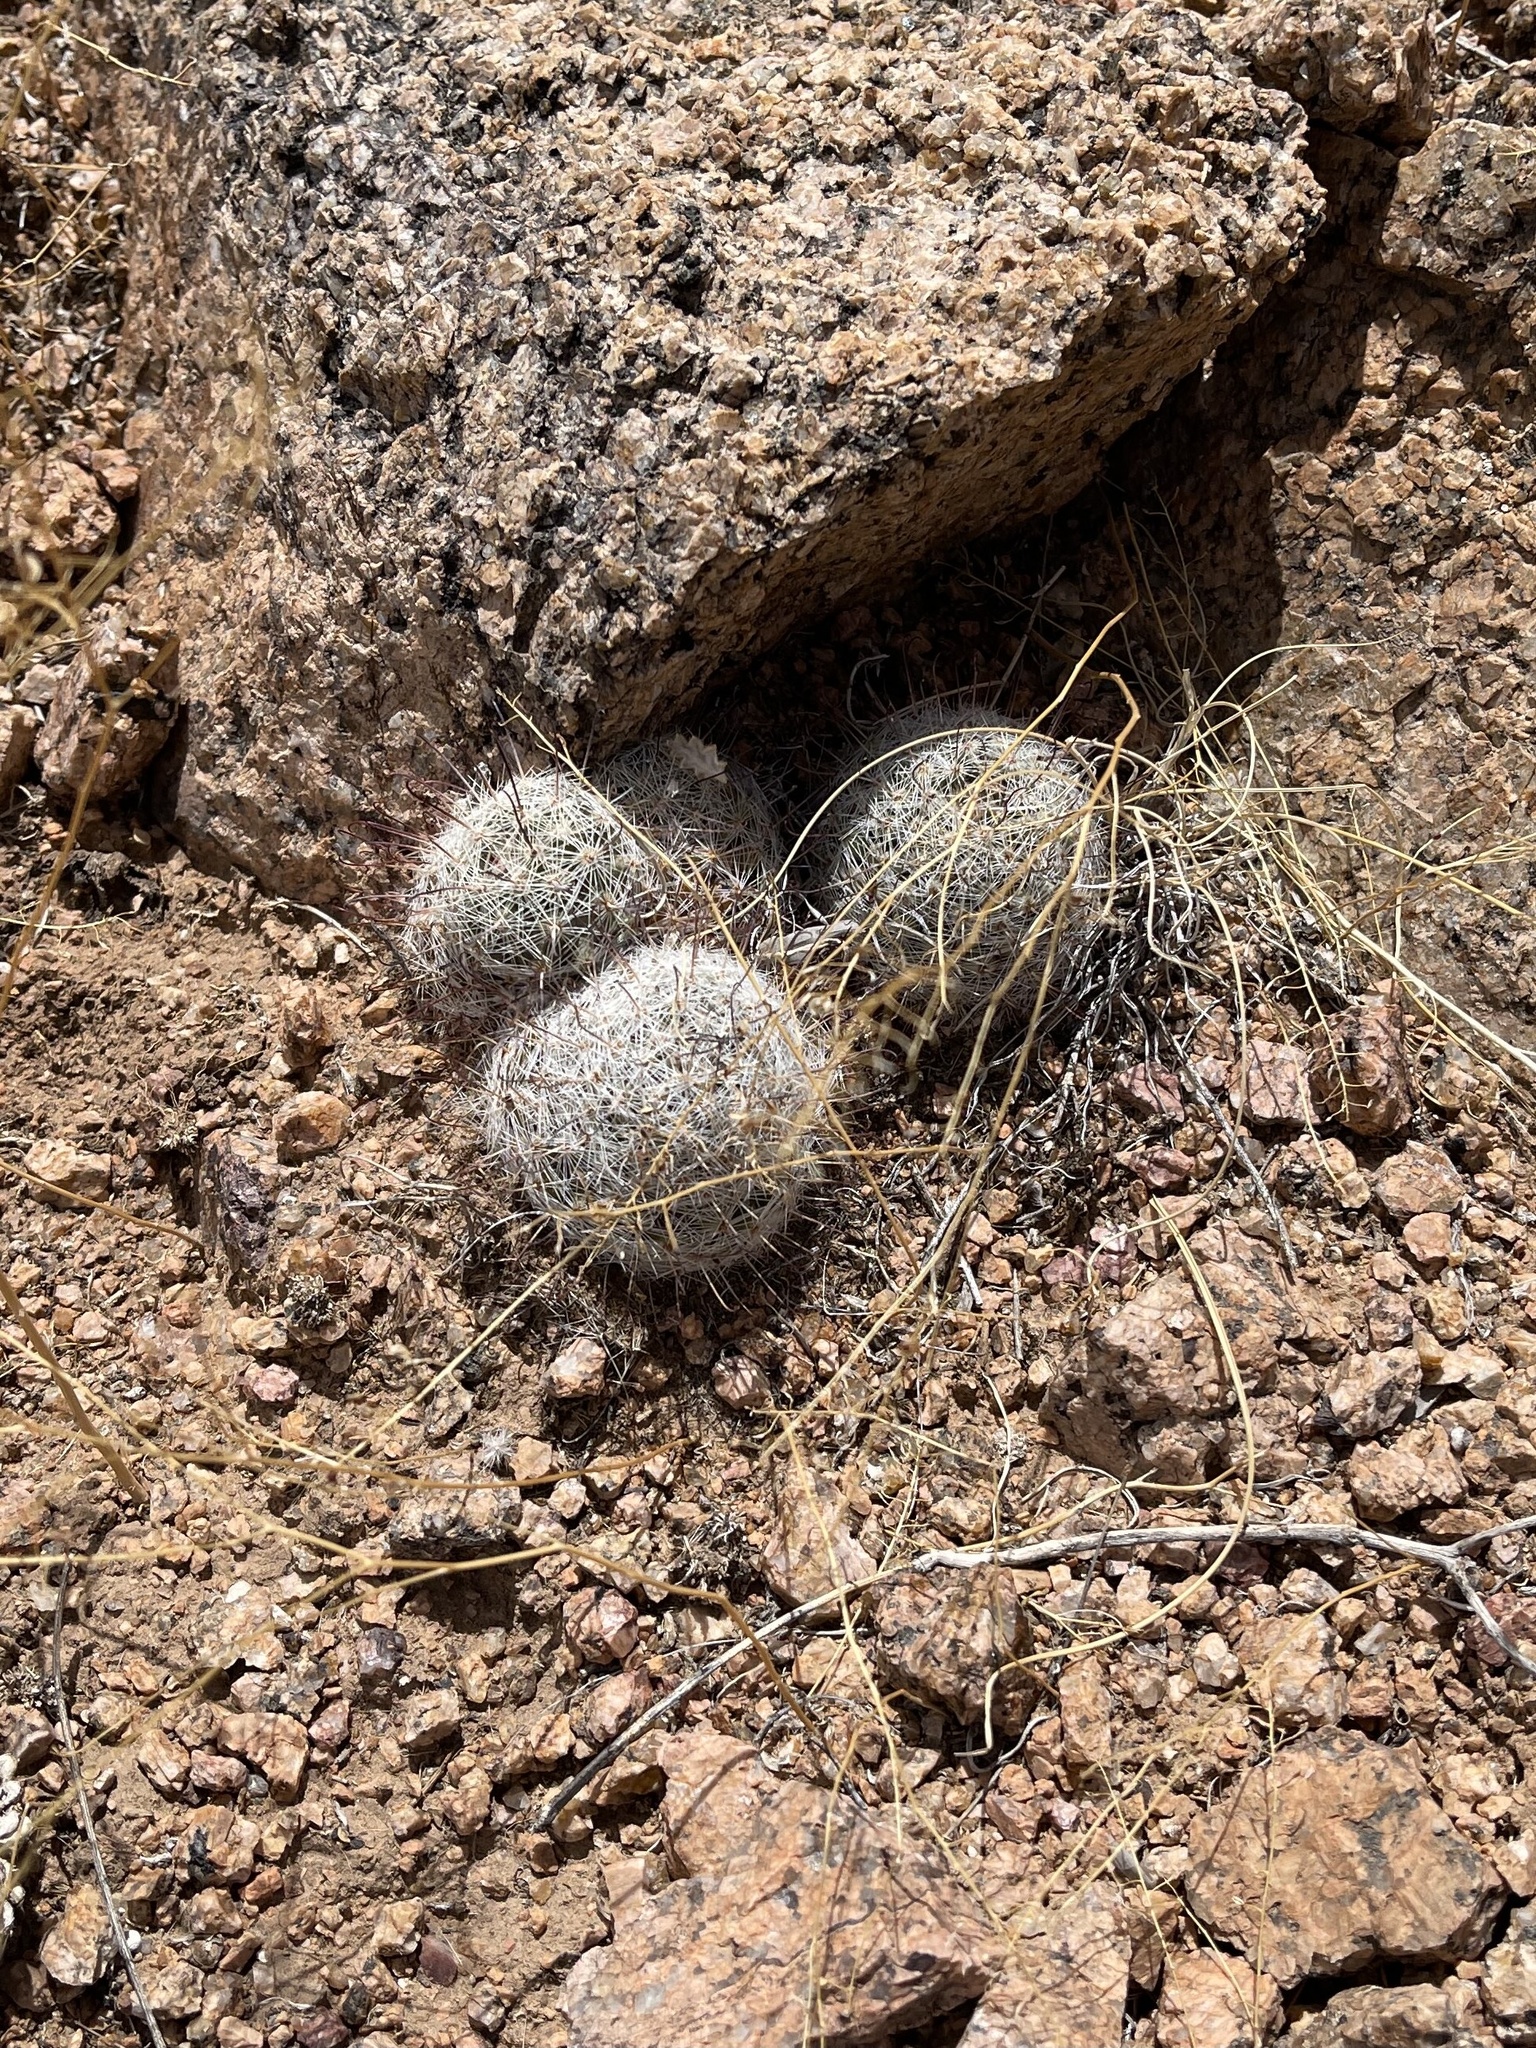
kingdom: Plantae
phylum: Tracheophyta
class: Magnoliopsida
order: Caryophyllales
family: Cactaceae
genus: Cochemiea
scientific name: Cochemiea grahamii
